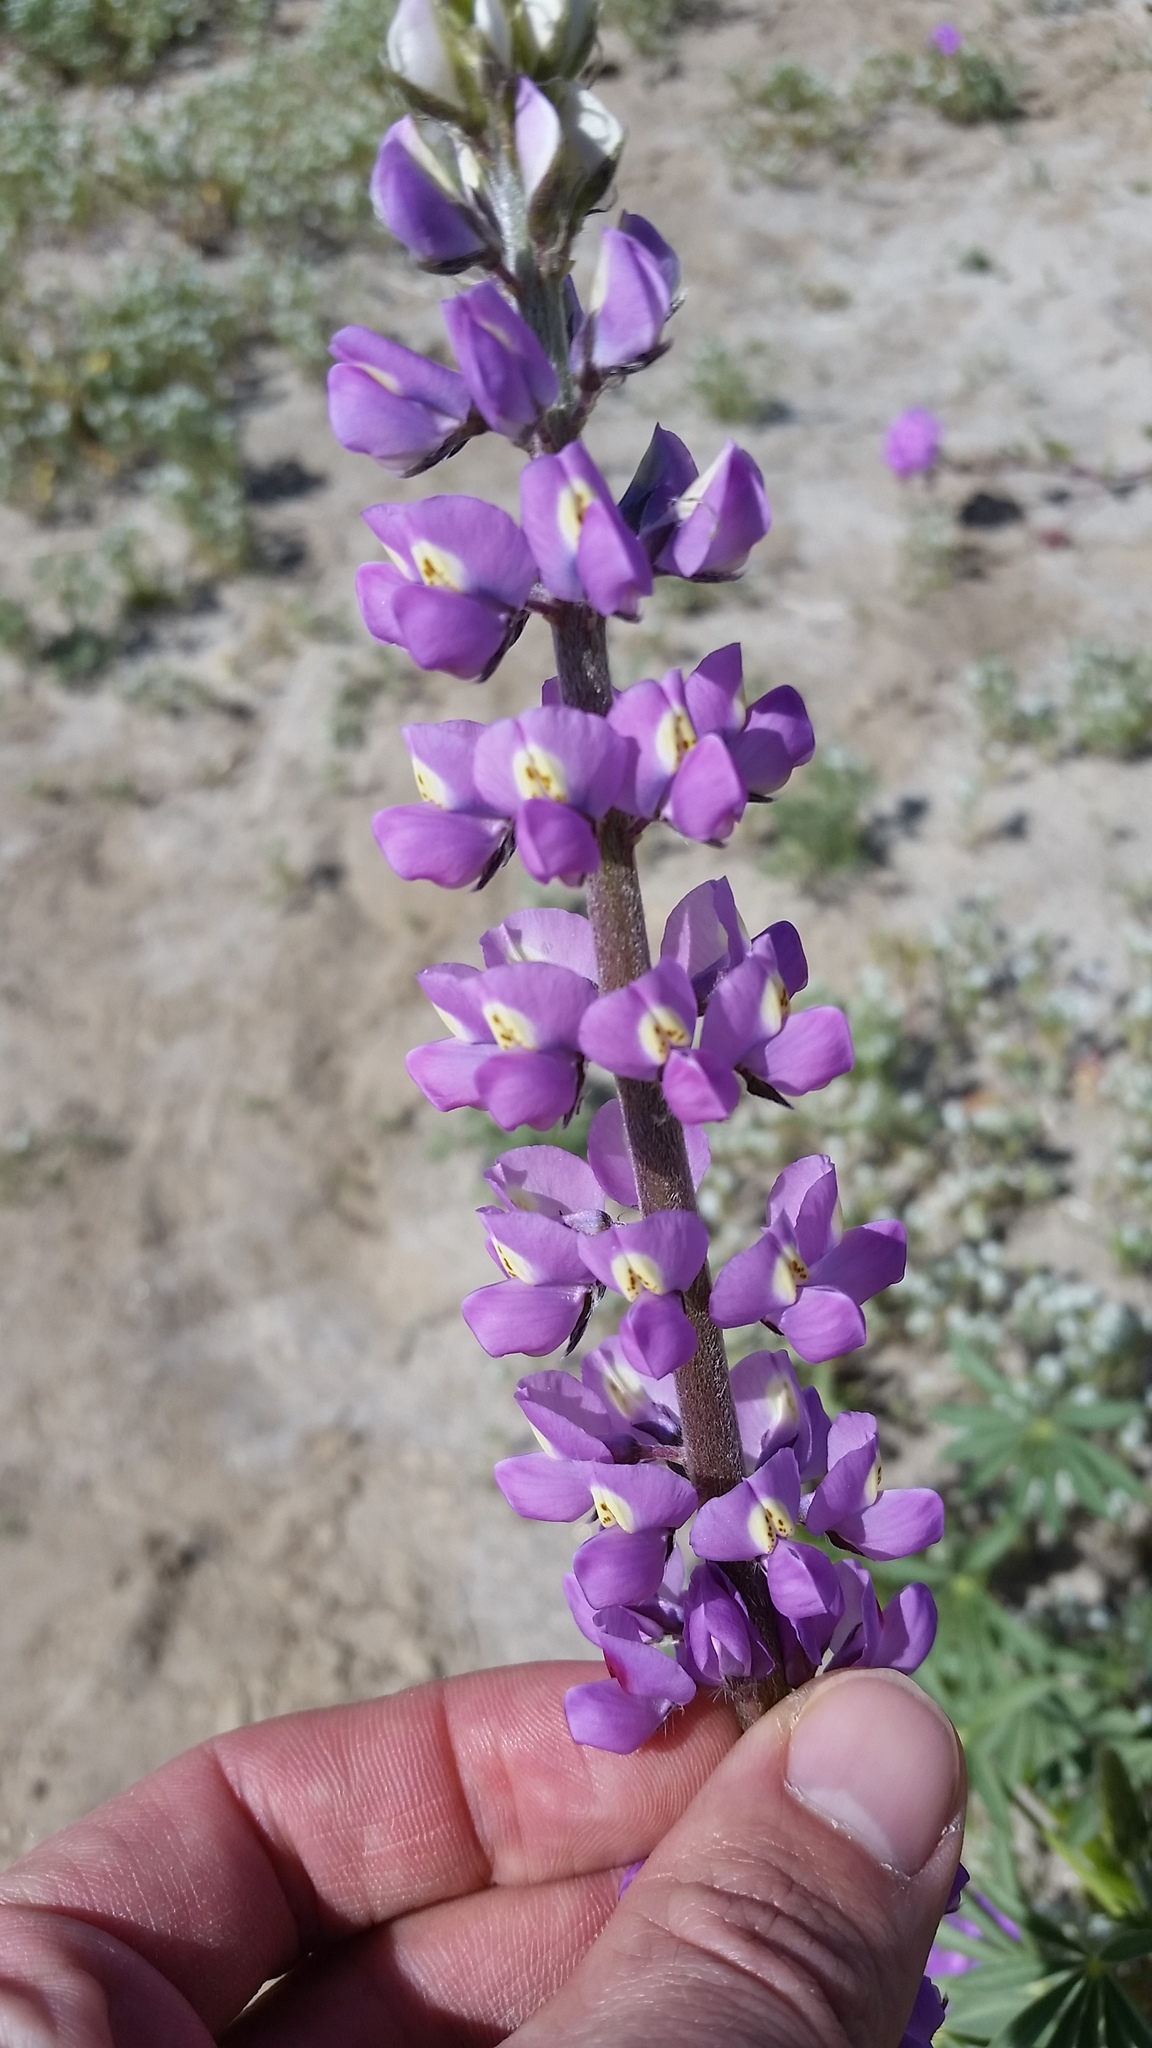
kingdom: Plantae
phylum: Tracheophyta
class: Magnoliopsida
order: Fabales
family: Fabaceae
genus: Lupinus
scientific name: Lupinus arizonicus
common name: Arizona lupine
